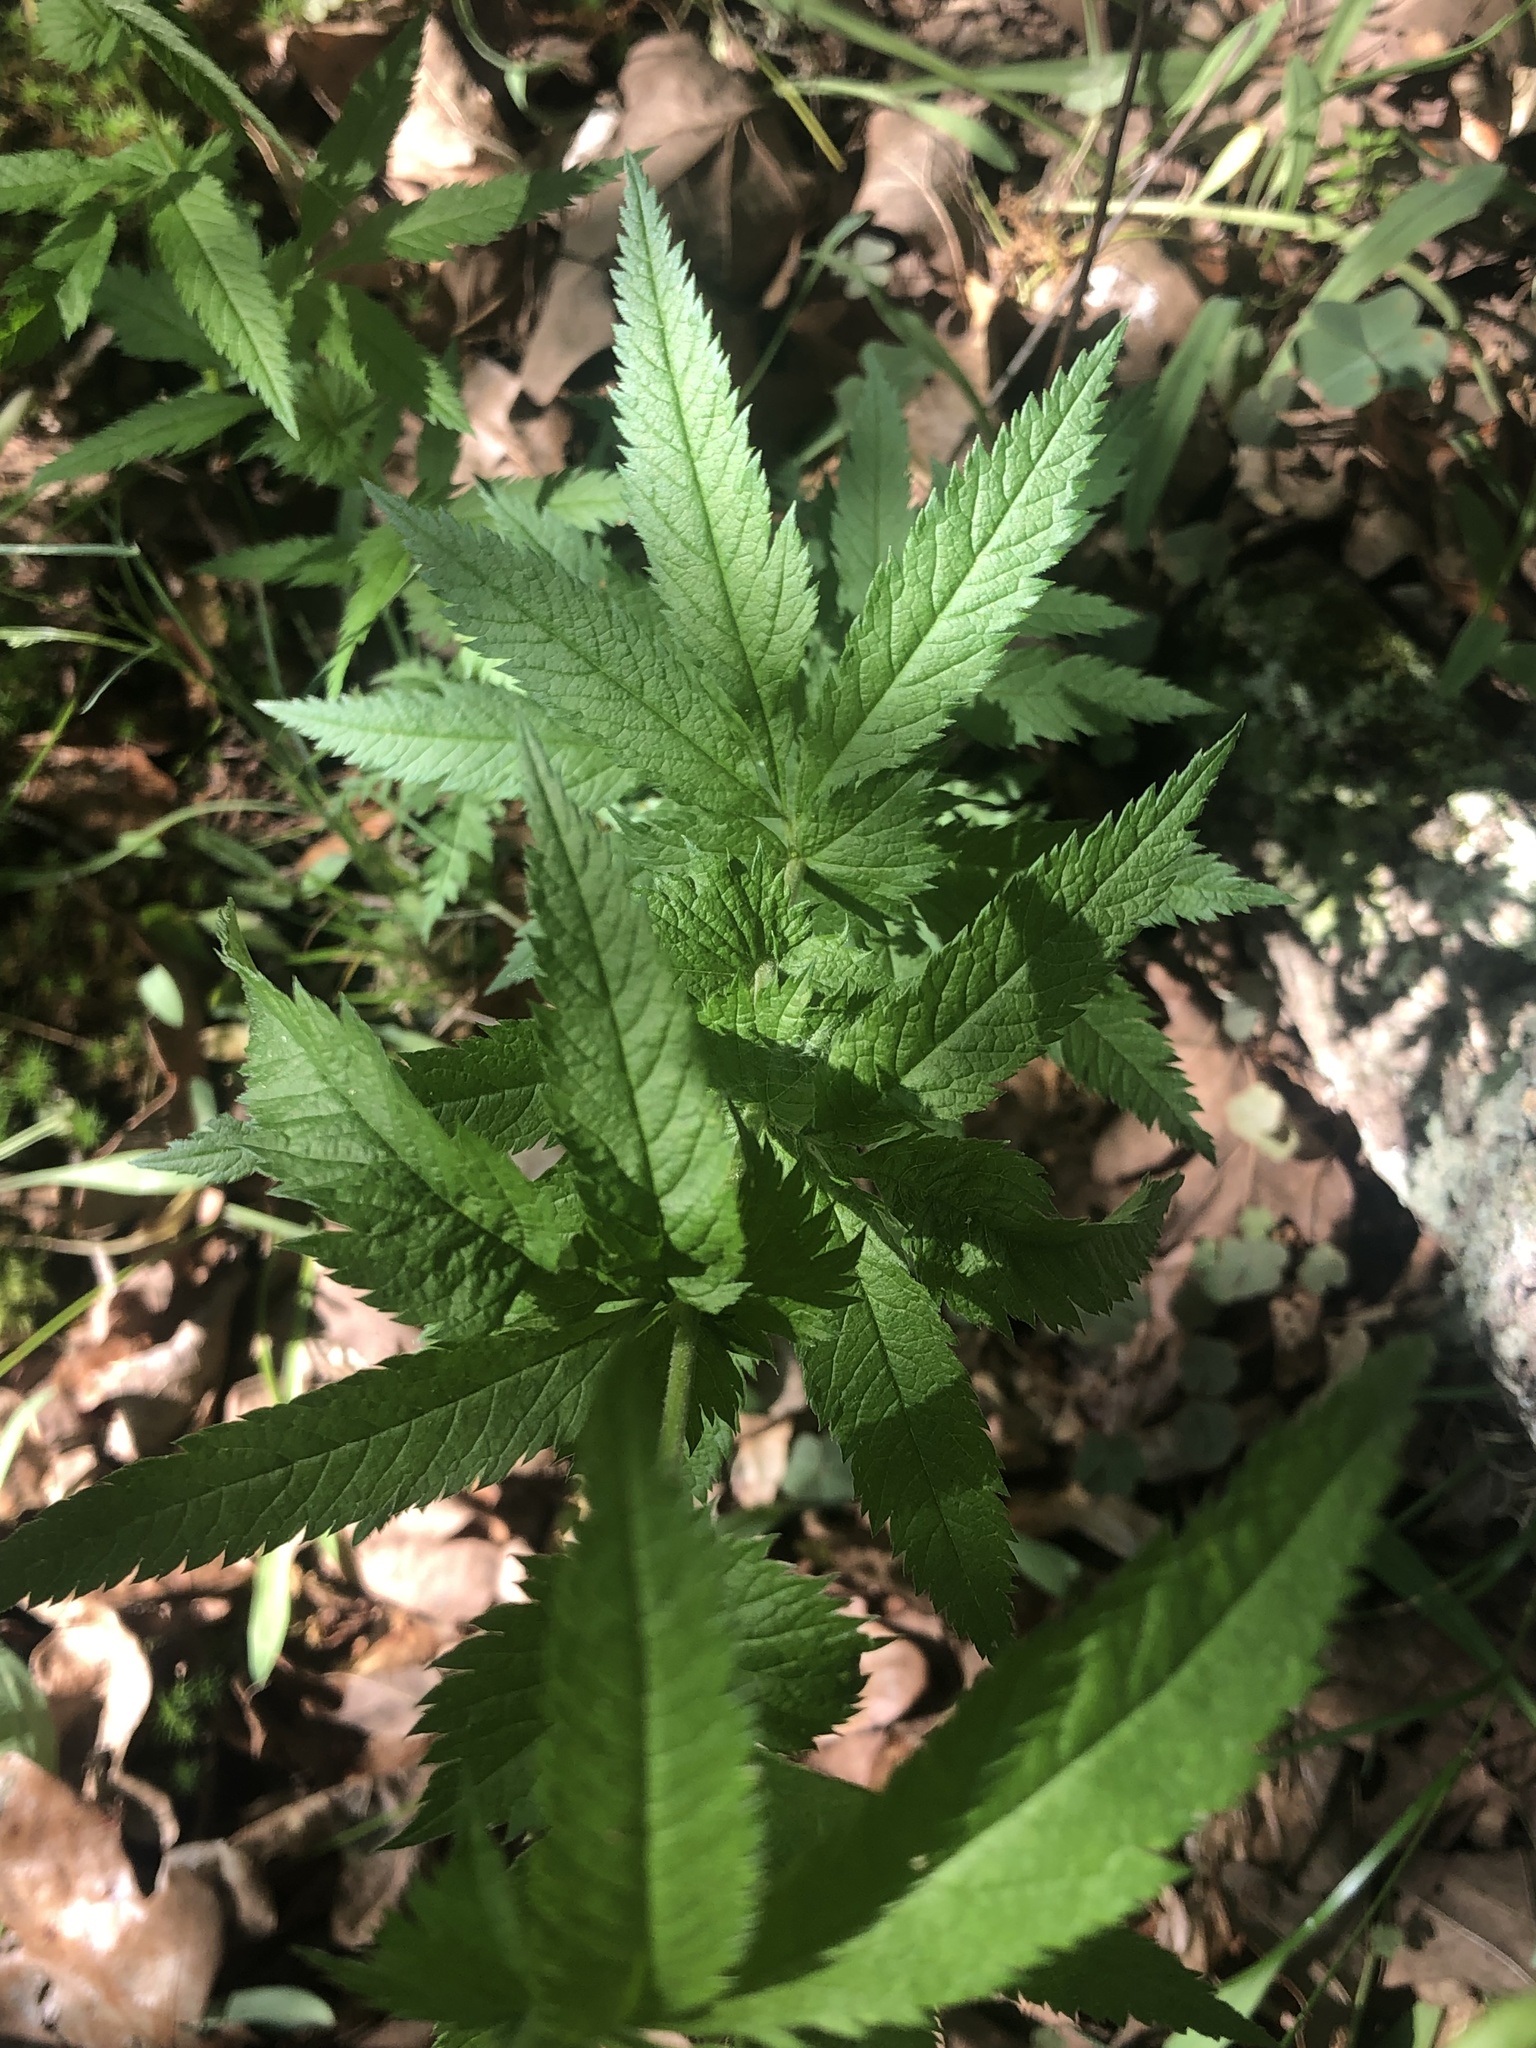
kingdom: Plantae
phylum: Tracheophyta
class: Magnoliopsida
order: Rosales
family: Rosaceae
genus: Gillenia
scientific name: Gillenia stipulata
